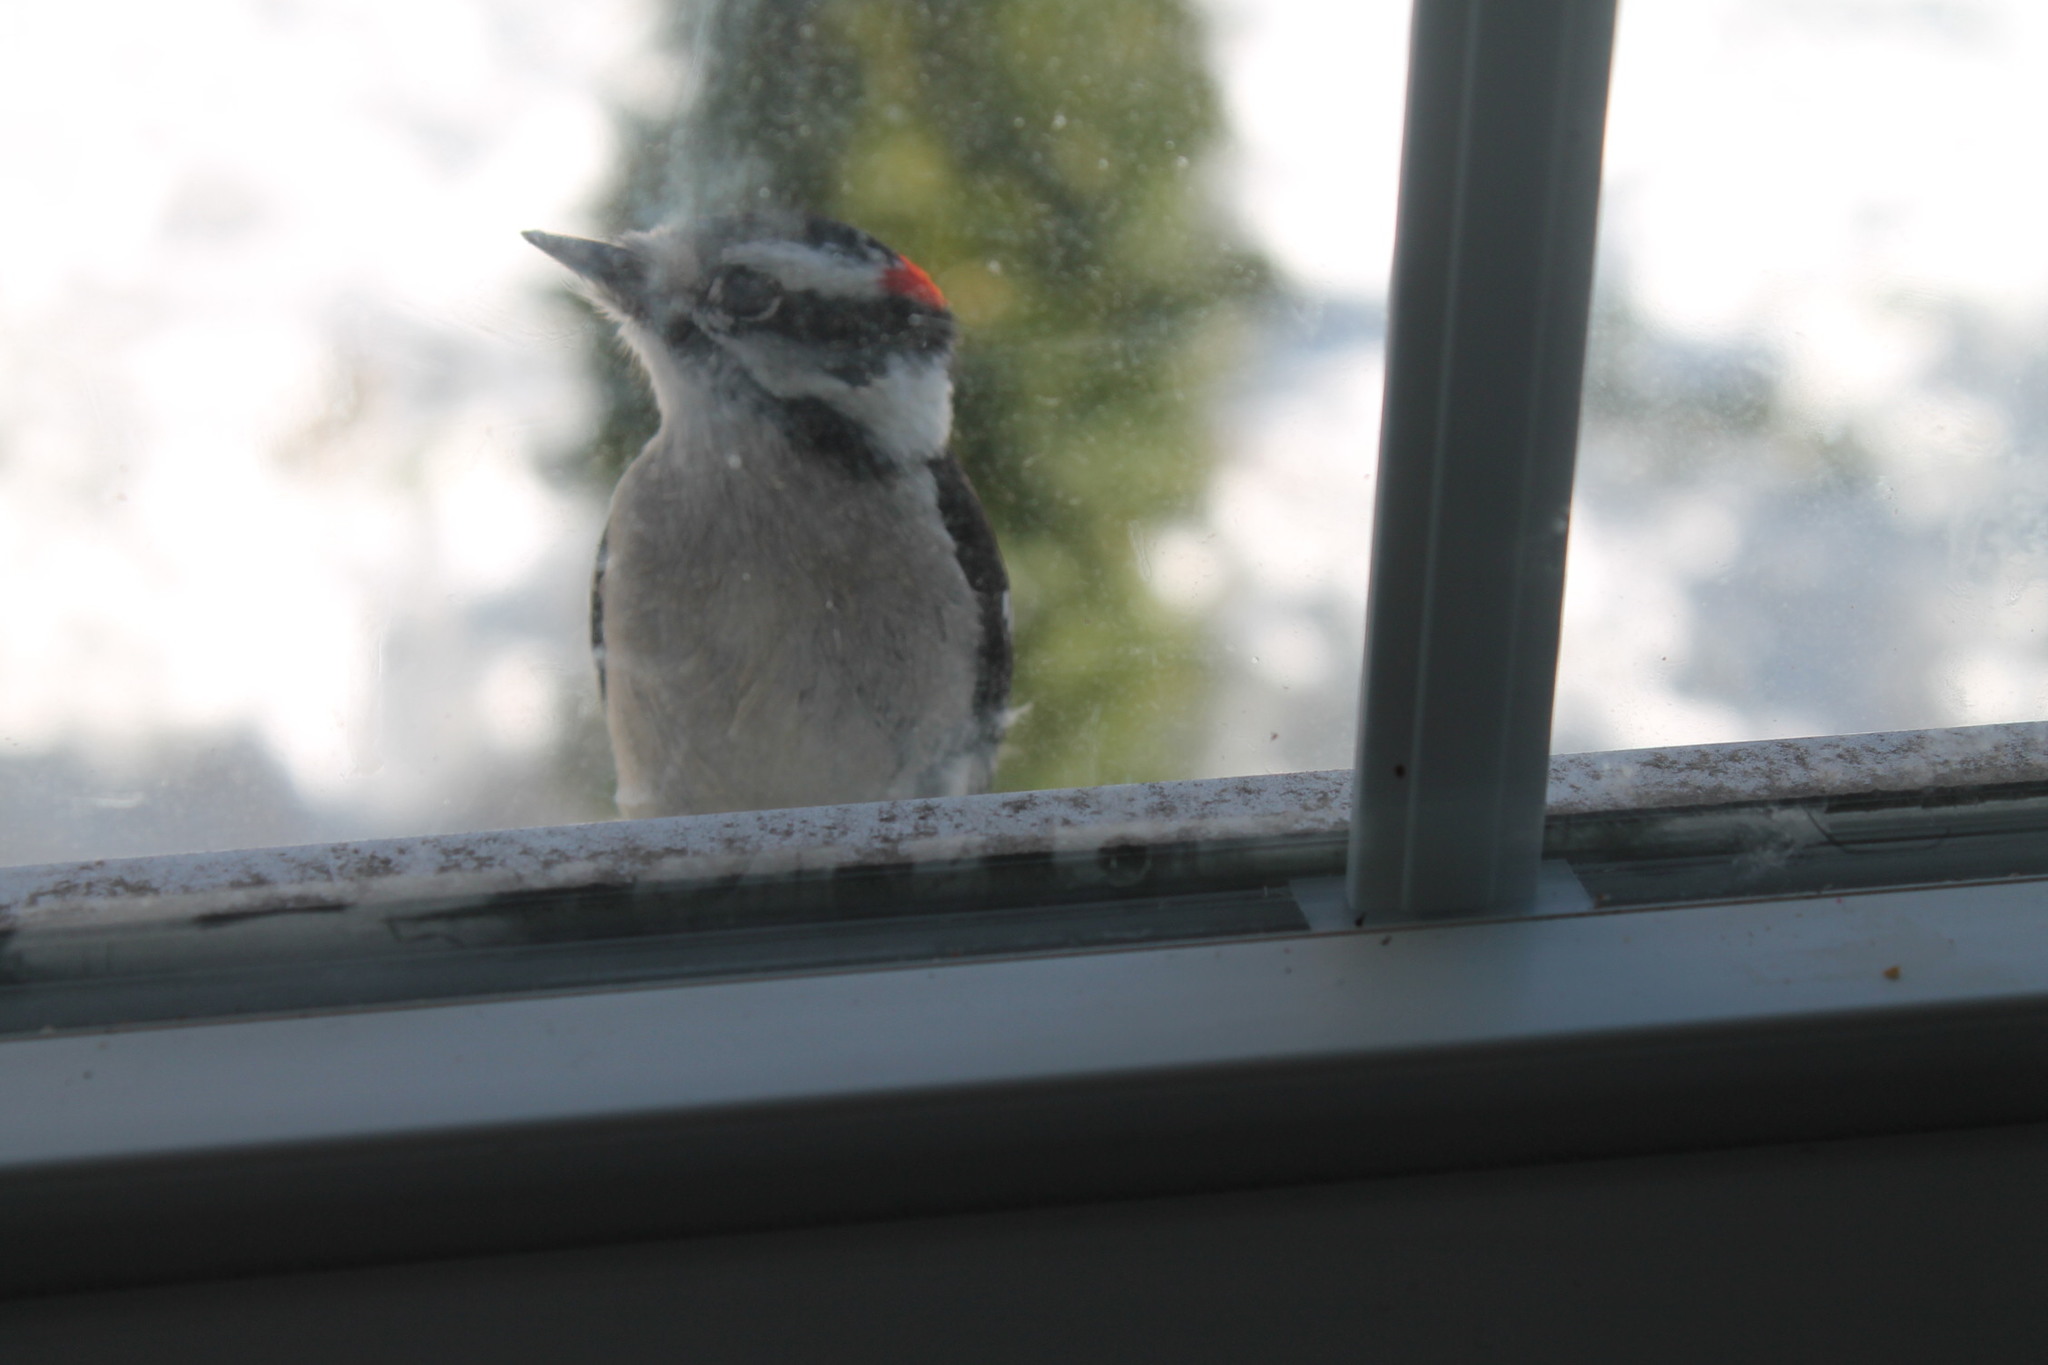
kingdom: Animalia
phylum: Chordata
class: Aves
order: Piciformes
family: Picidae
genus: Dryobates
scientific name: Dryobates pubescens
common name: Downy woodpecker
